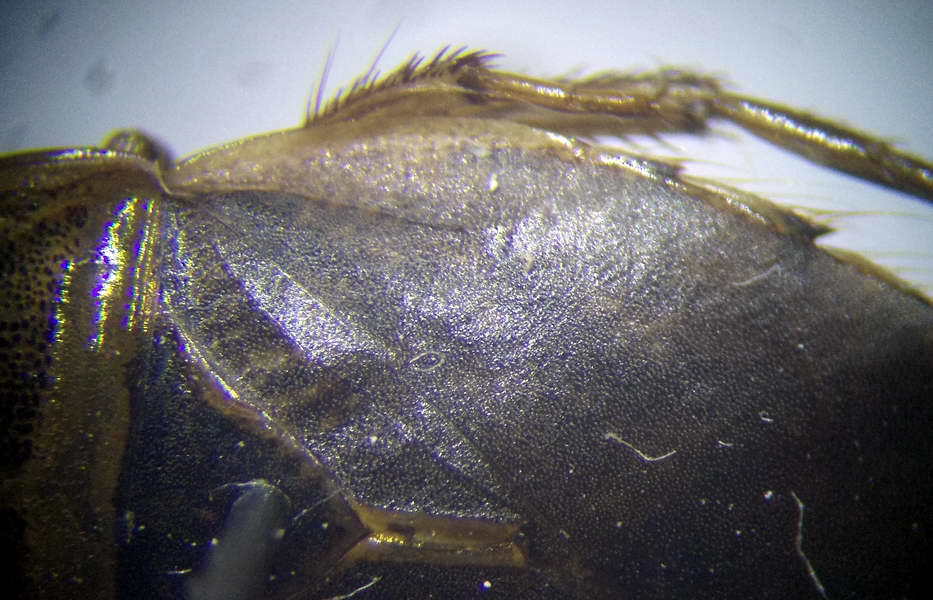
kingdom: Animalia
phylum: Arthropoda
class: Insecta
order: Hemiptera
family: Naucoridae
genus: Ilyocoris
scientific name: Ilyocoris cimicoides
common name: Saucer bugs
